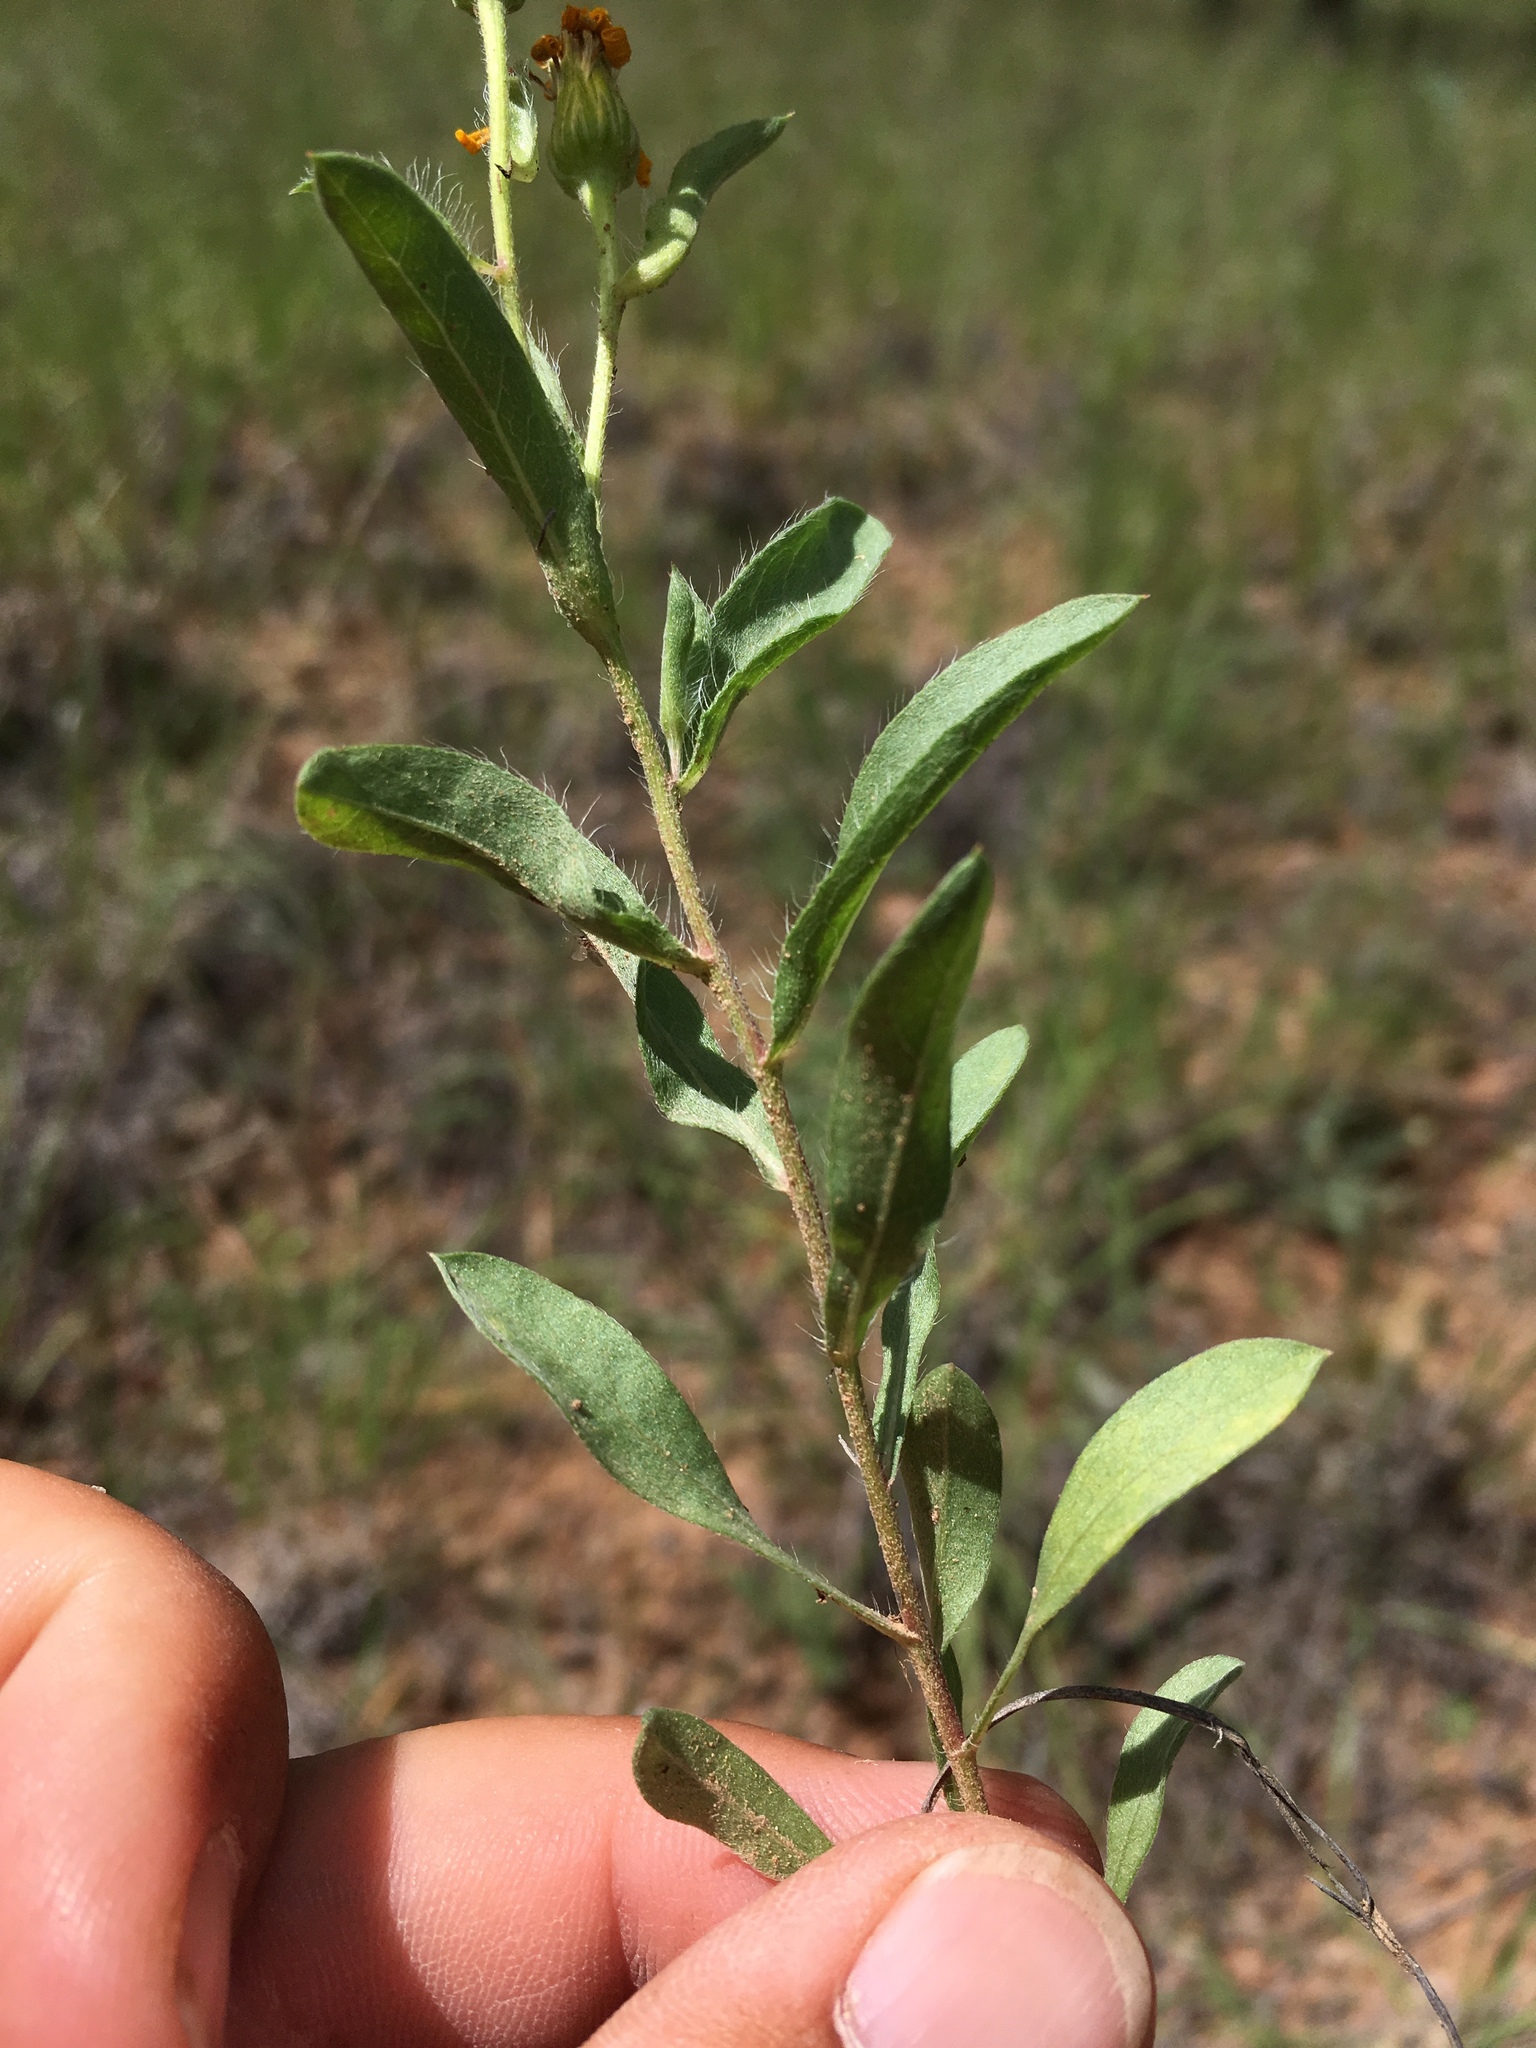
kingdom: Plantae
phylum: Tracheophyta
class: Magnoliopsida
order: Asterales
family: Asteraceae
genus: Heterotheca
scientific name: Heterotheca nitidula
